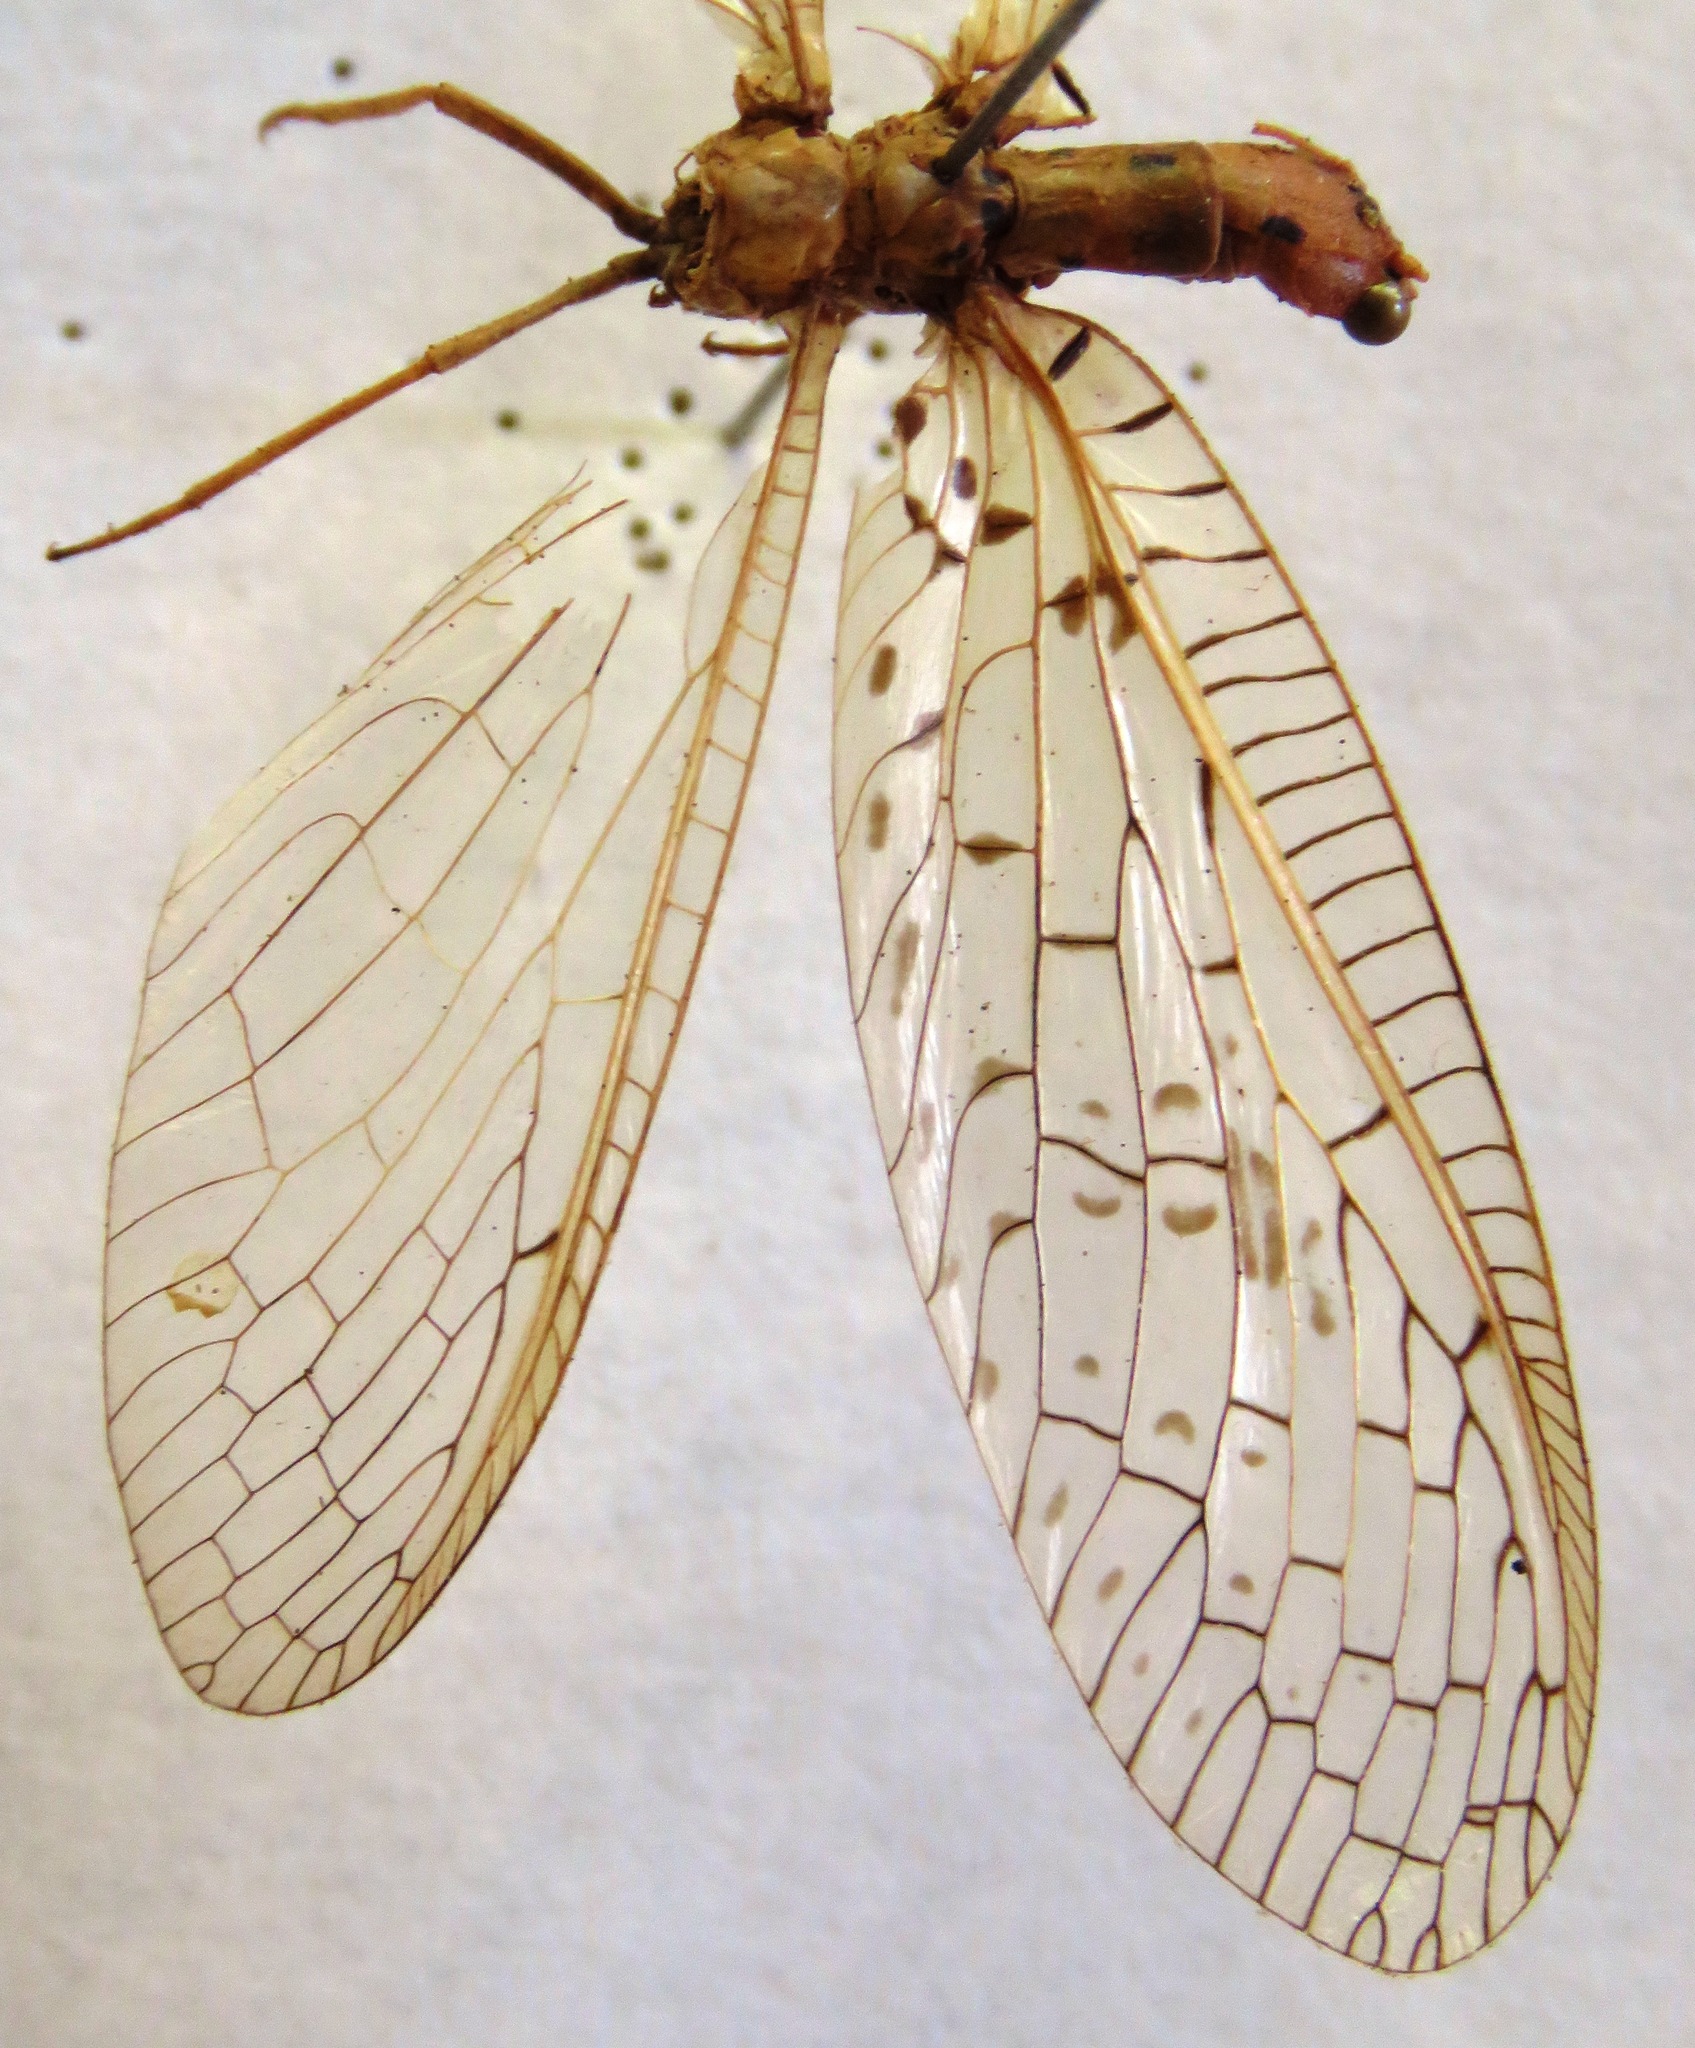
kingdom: Animalia
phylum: Arthropoda
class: Insecta
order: Megaloptera
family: Corydalidae
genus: Chloronia
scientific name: Chloronia mirifica
